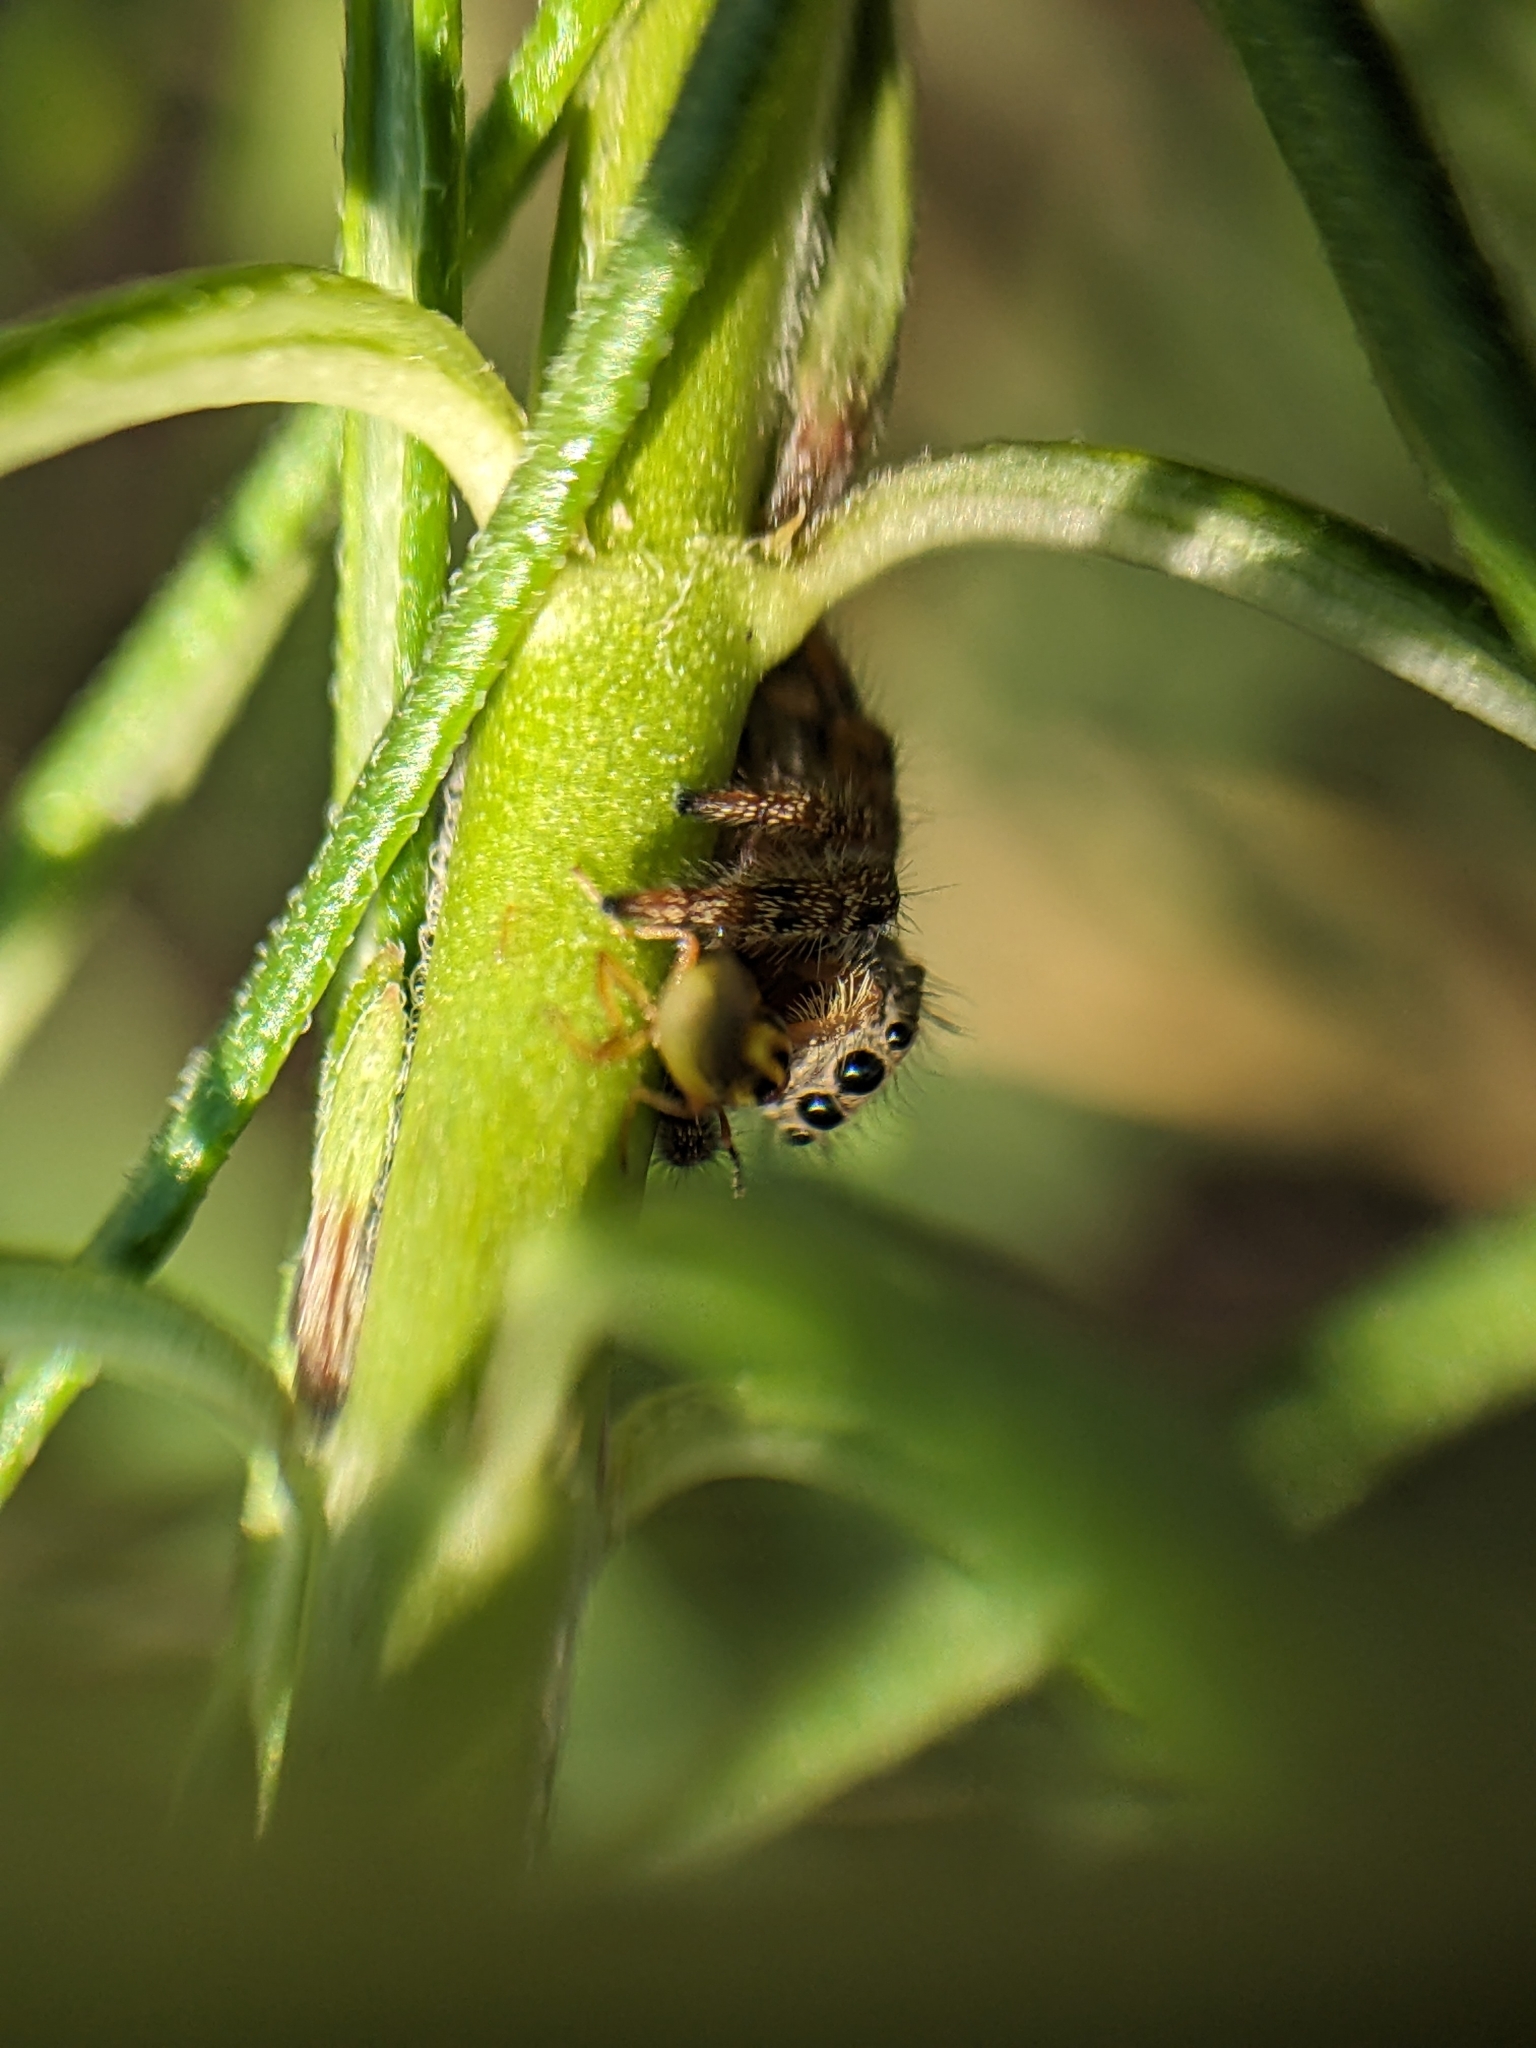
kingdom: Animalia
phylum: Arthropoda
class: Arachnida
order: Araneae
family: Salticidae
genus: Phidippus
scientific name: Phidippus princeps
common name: Grayish jumping spider
